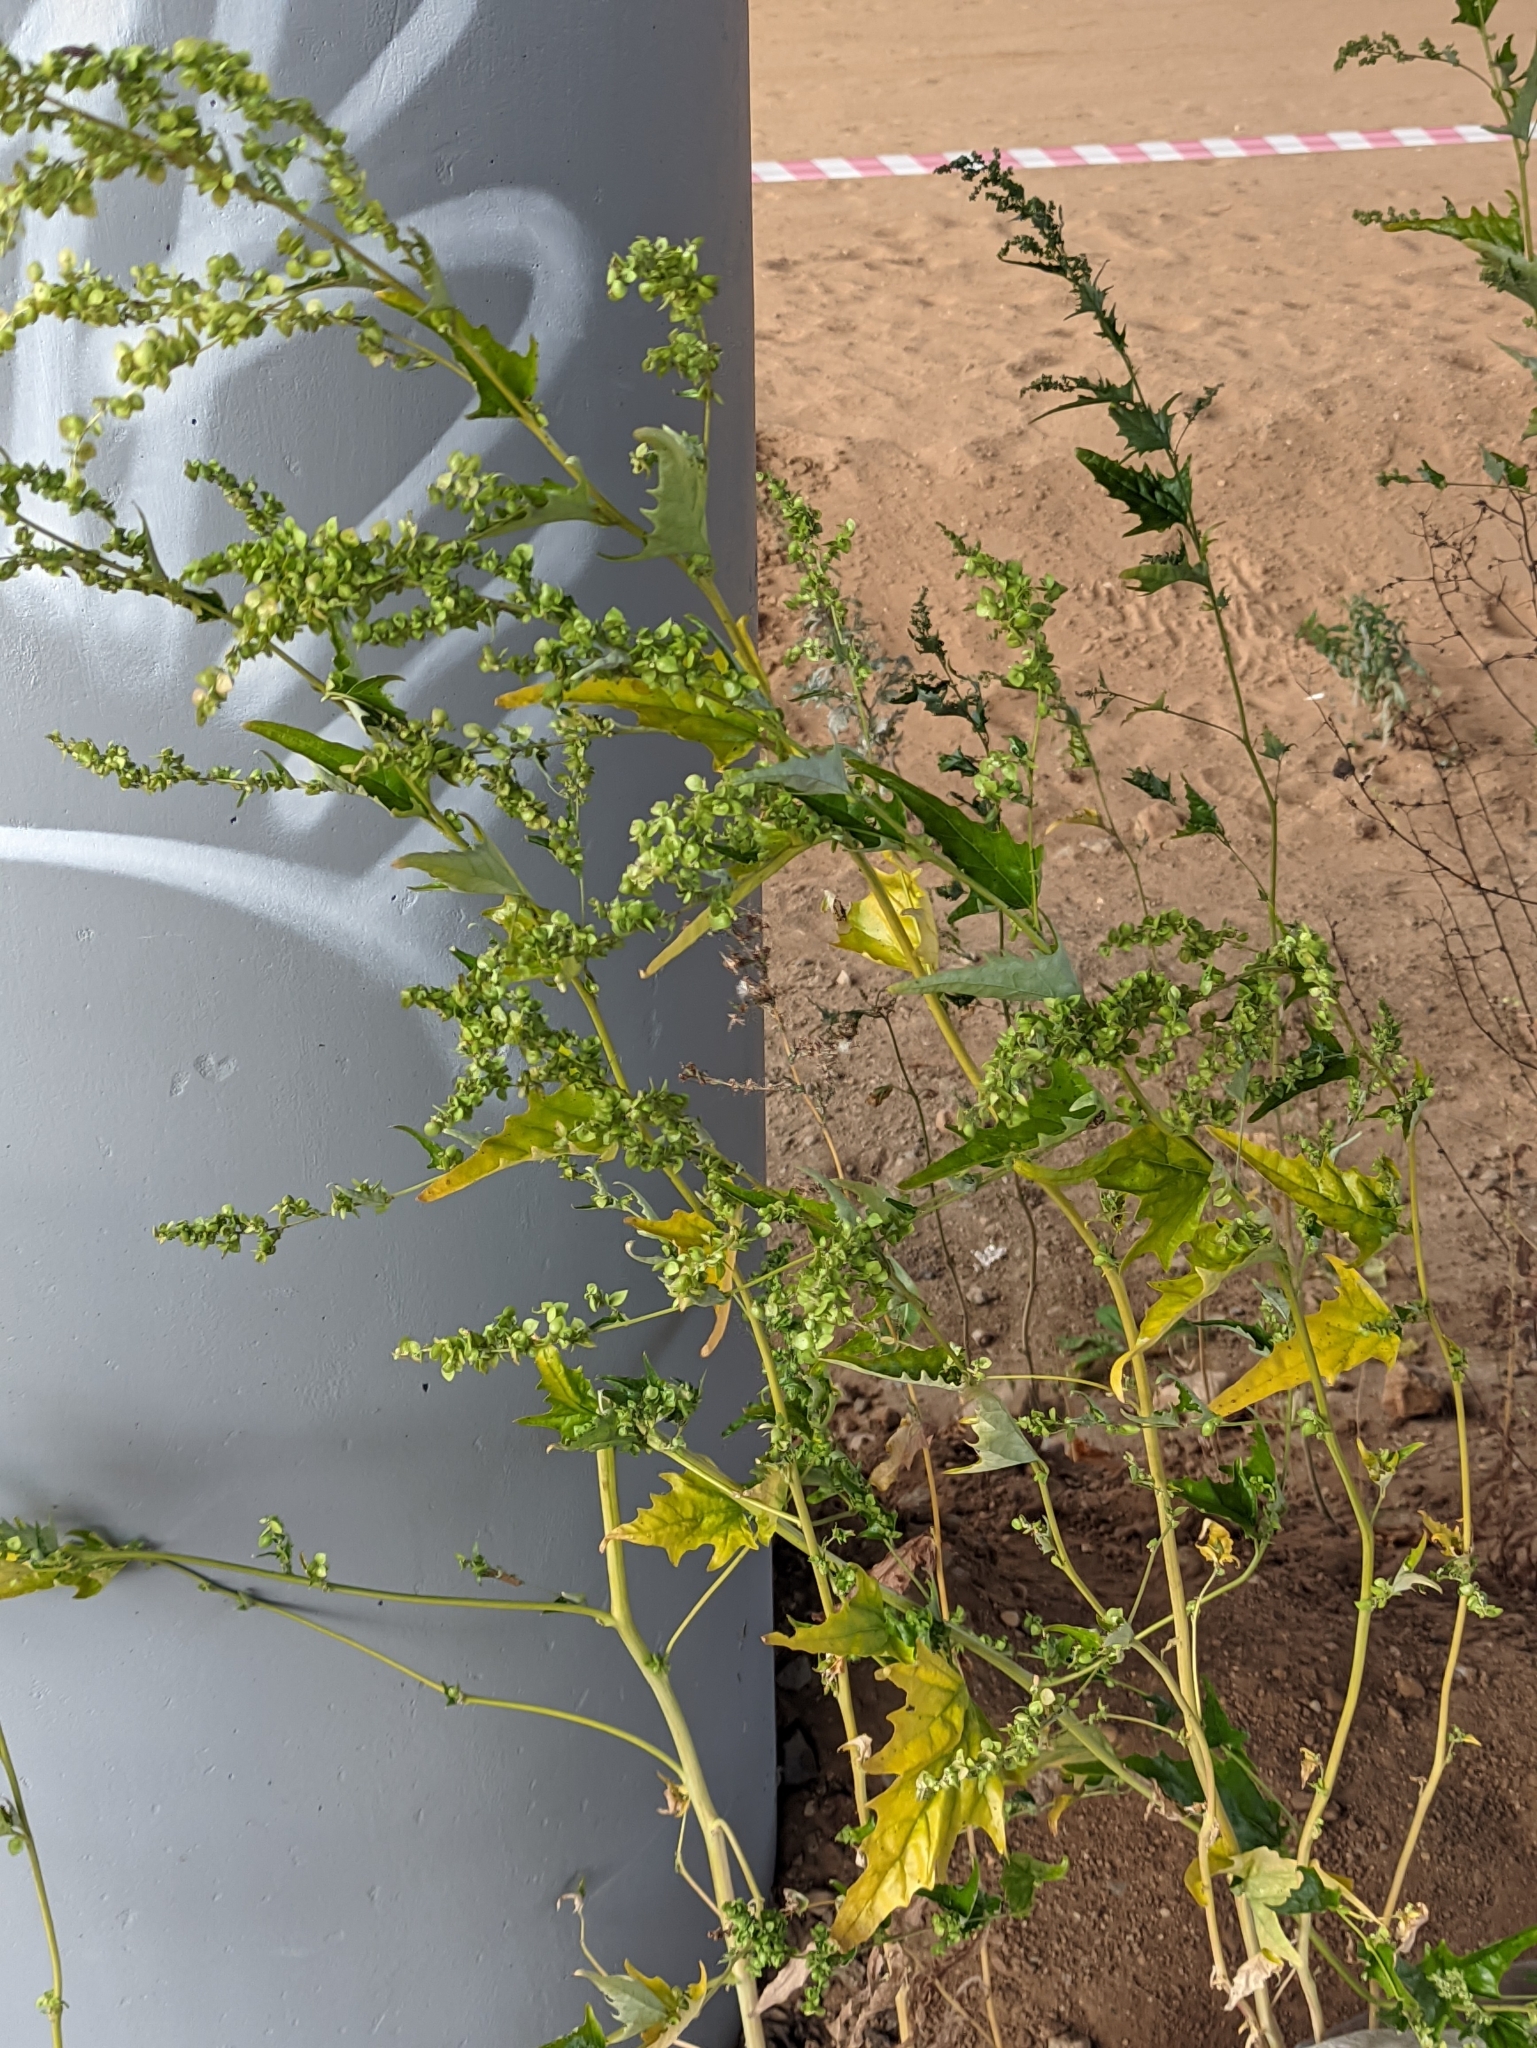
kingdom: Plantae
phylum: Tracheophyta
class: Magnoliopsida
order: Caryophyllales
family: Amaranthaceae
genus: Atriplex
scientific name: Atriplex sagittata
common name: Purple orache
